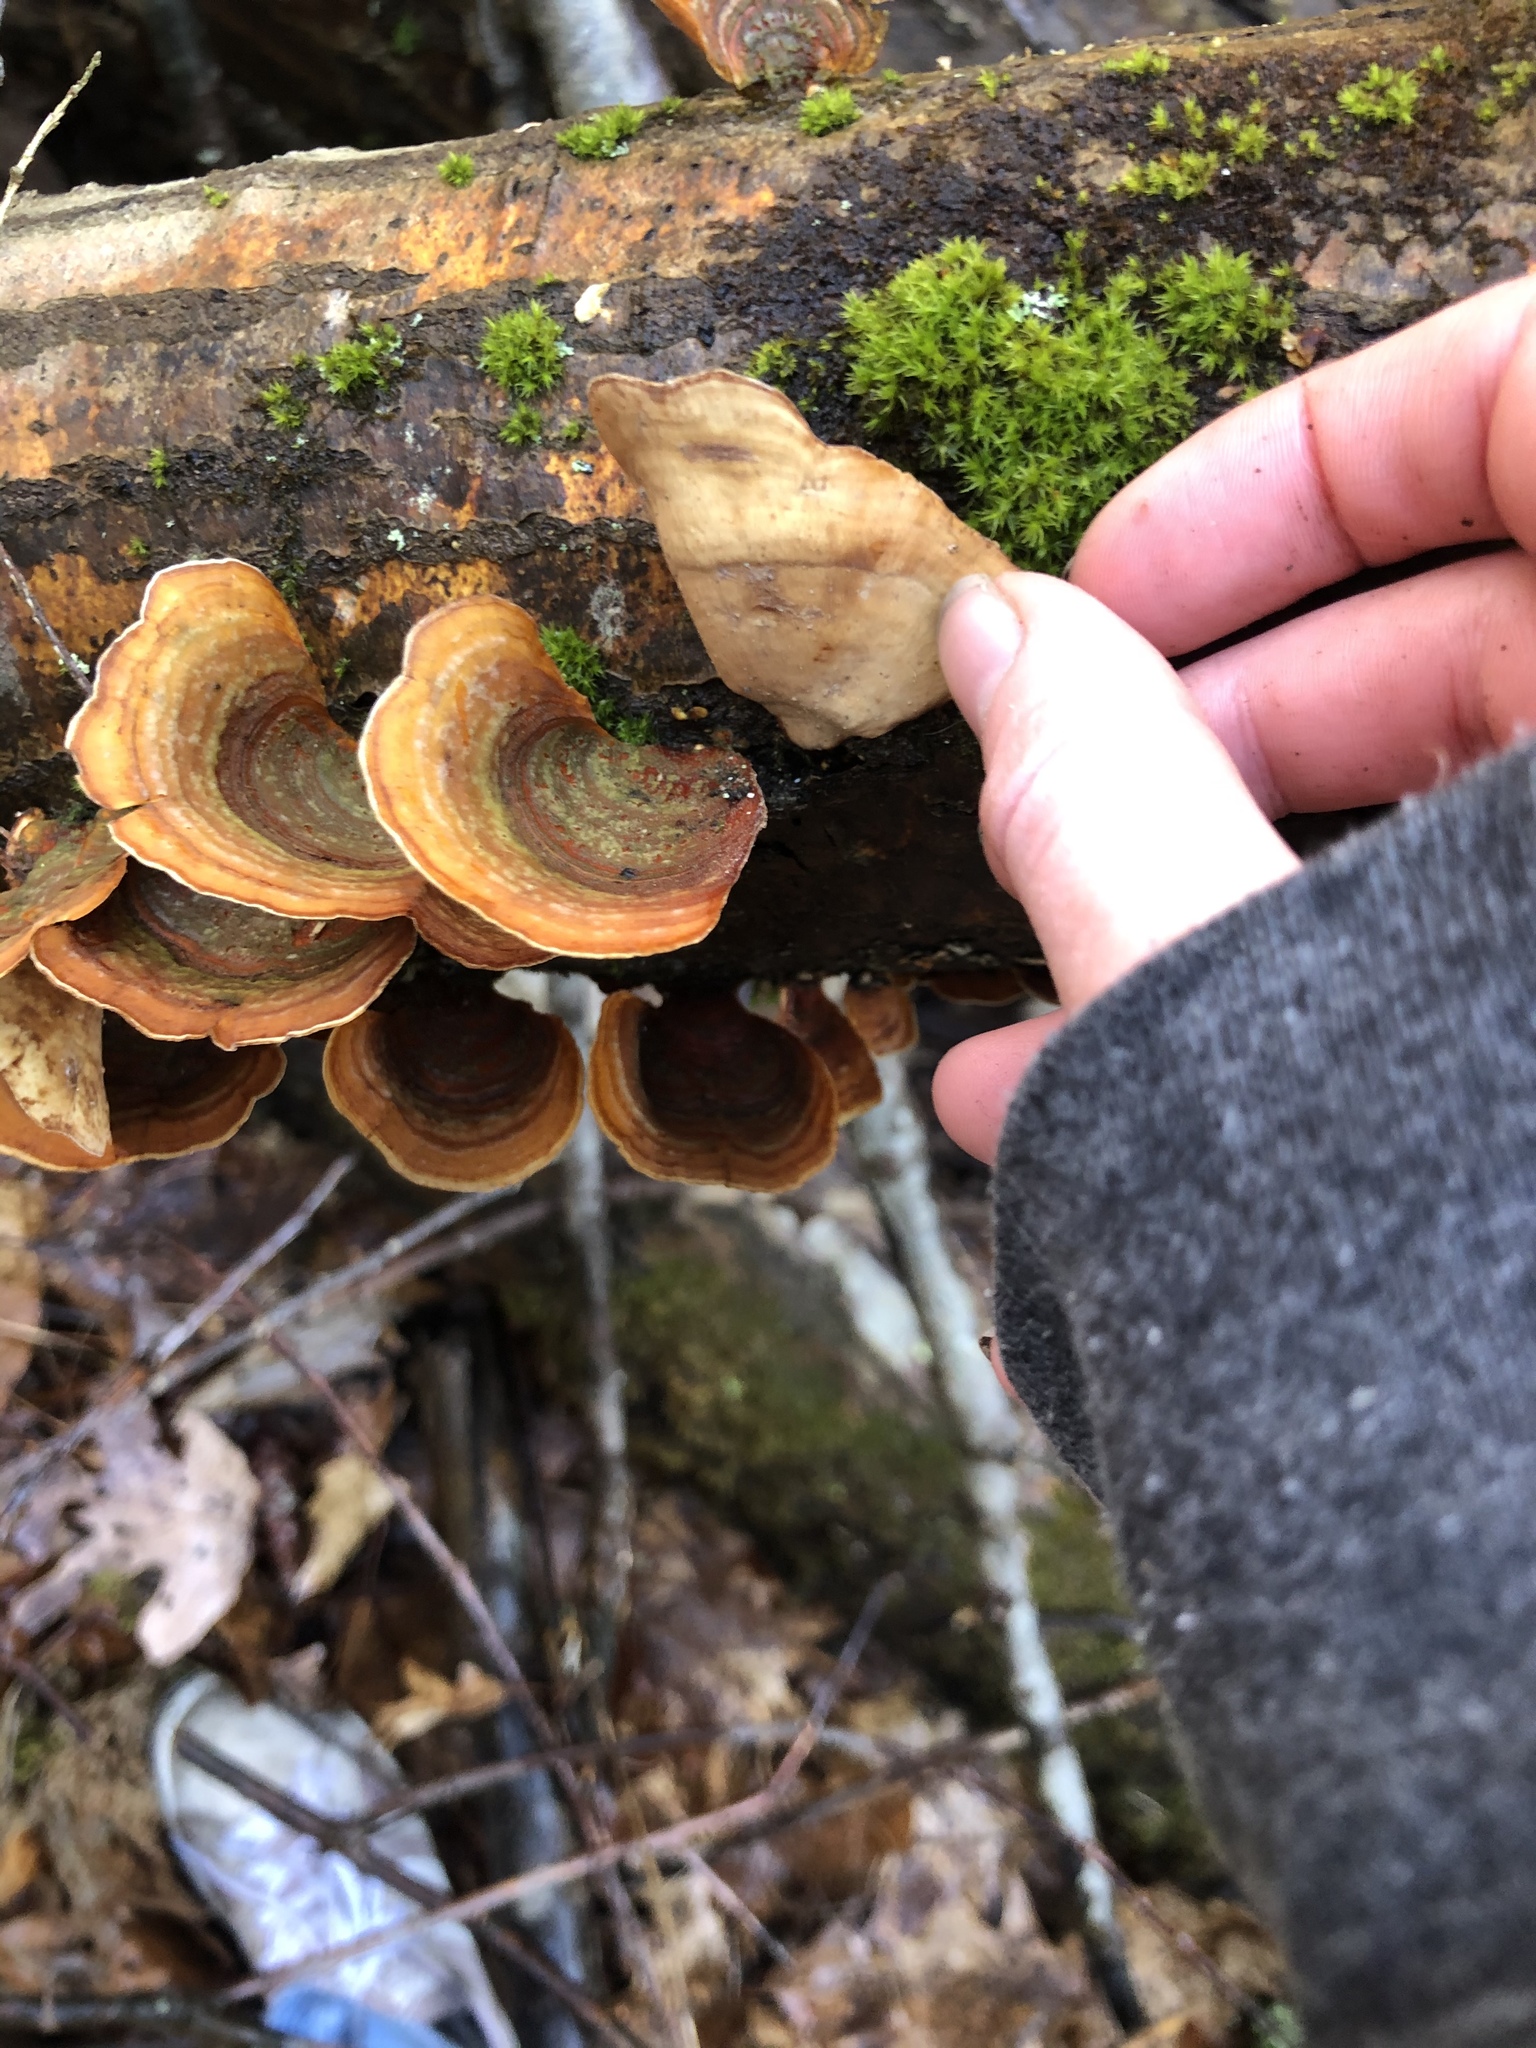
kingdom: Fungi
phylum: Basidiomycota
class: Agaricomycetes
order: Russulales
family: Stereaceae
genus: Stereum
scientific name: Stereum lobatum
